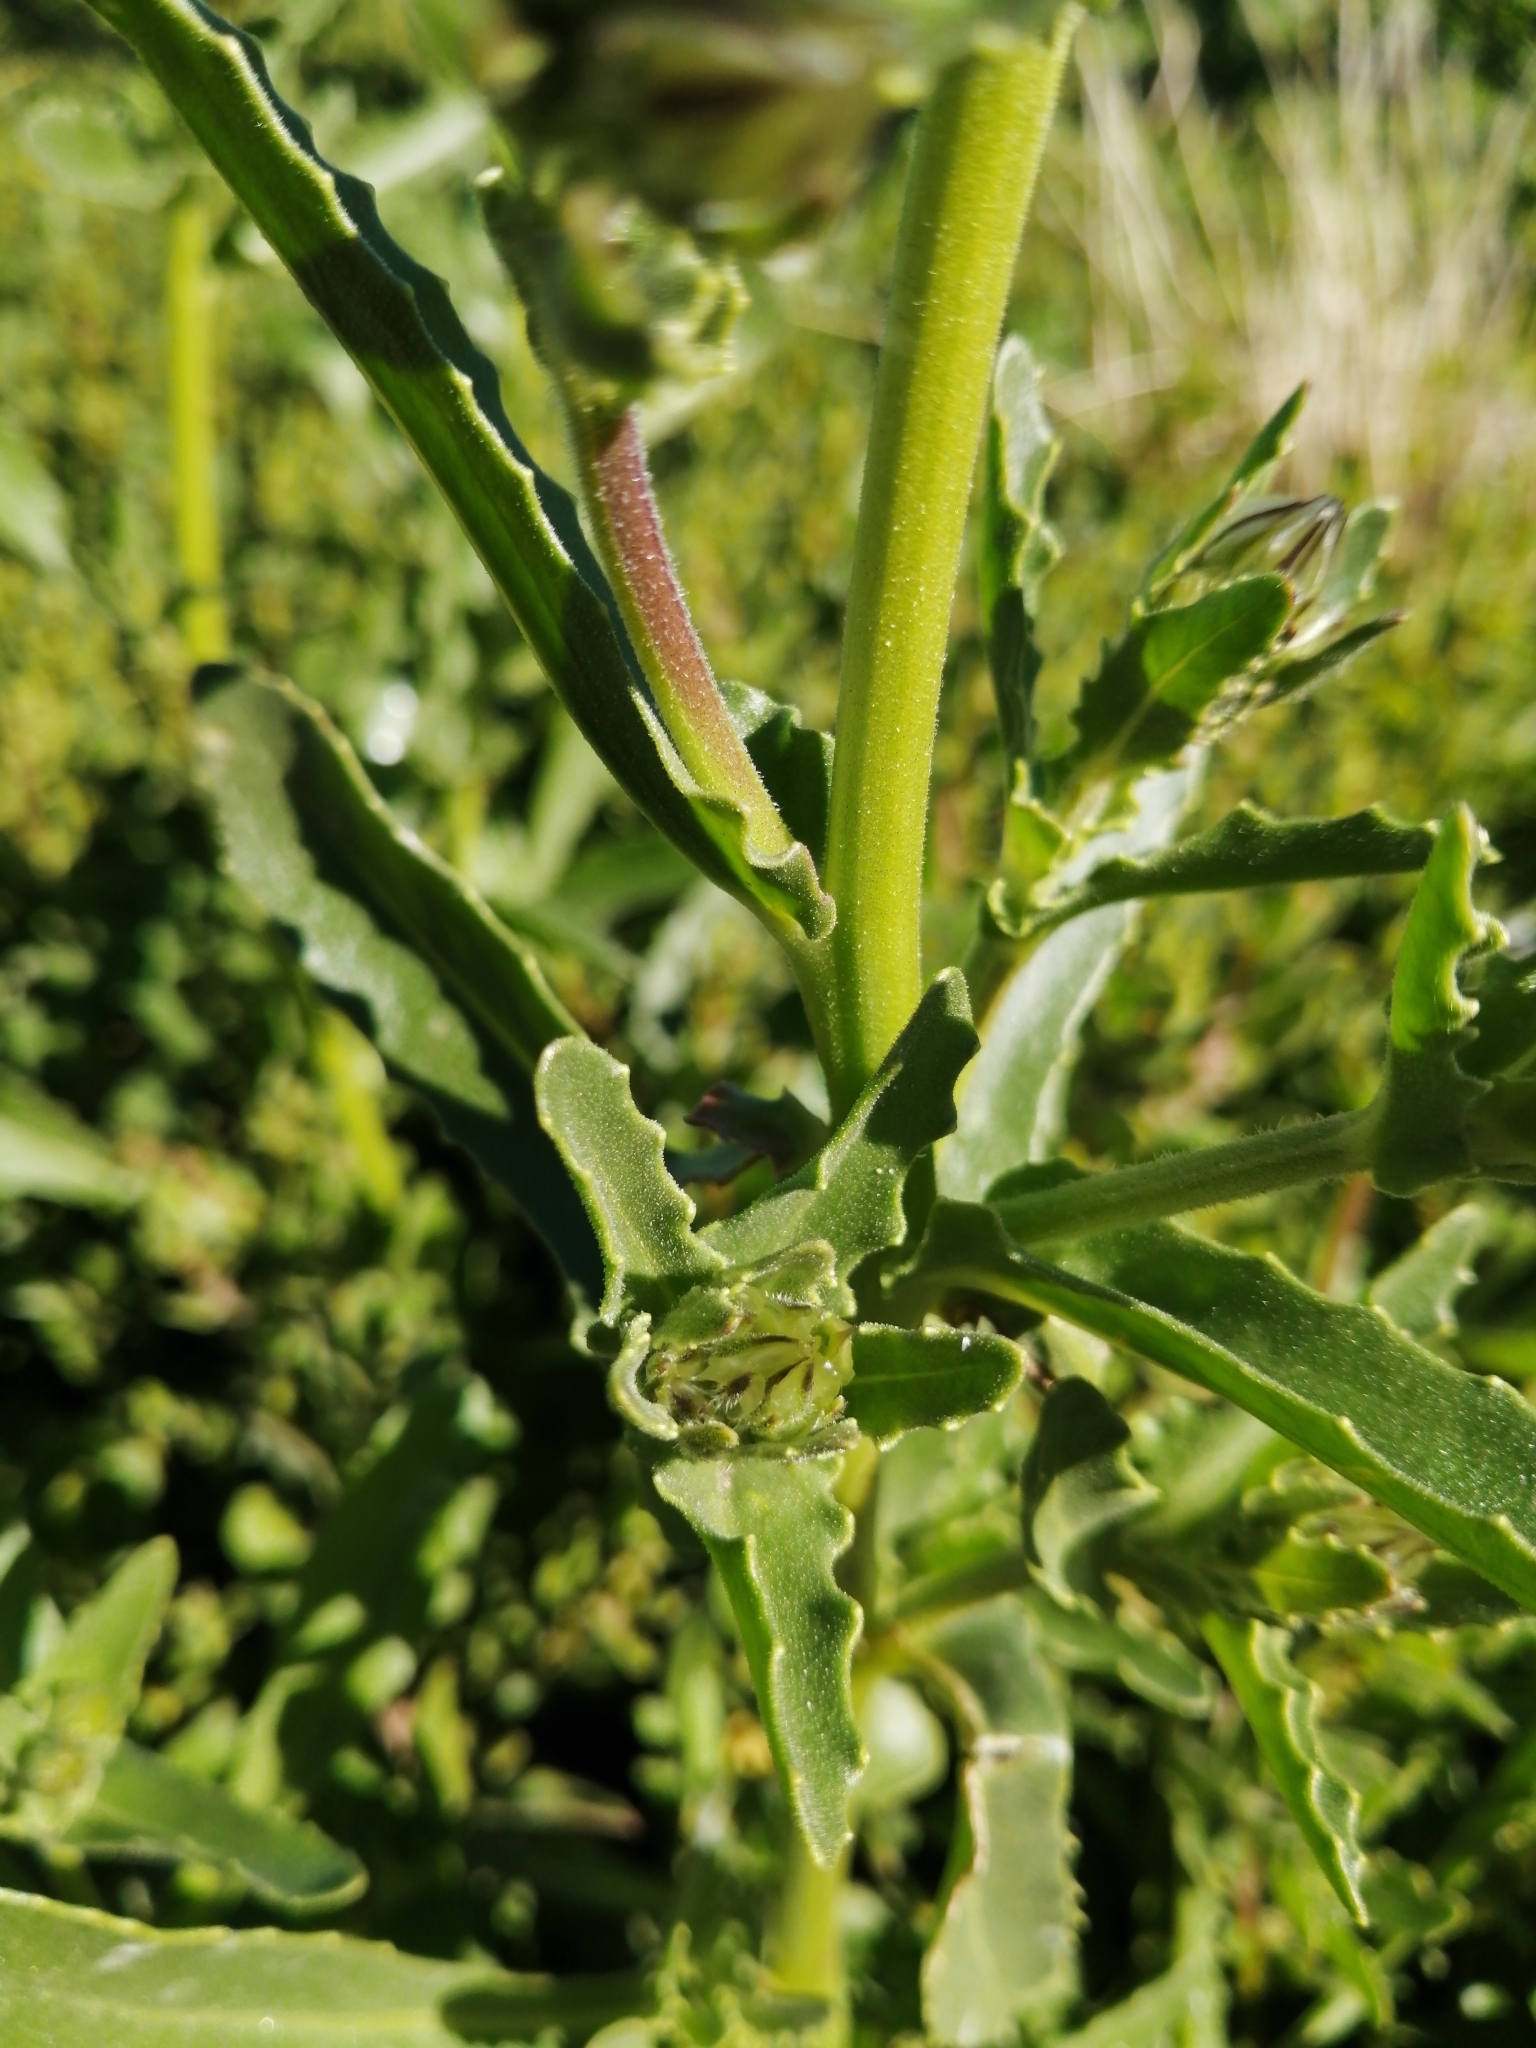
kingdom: Plantae
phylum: Tracheophyta
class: Magnoliopsida
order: Asterales
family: Asteraceae
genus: Osteospermum
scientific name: Osteospermum monstrosum
